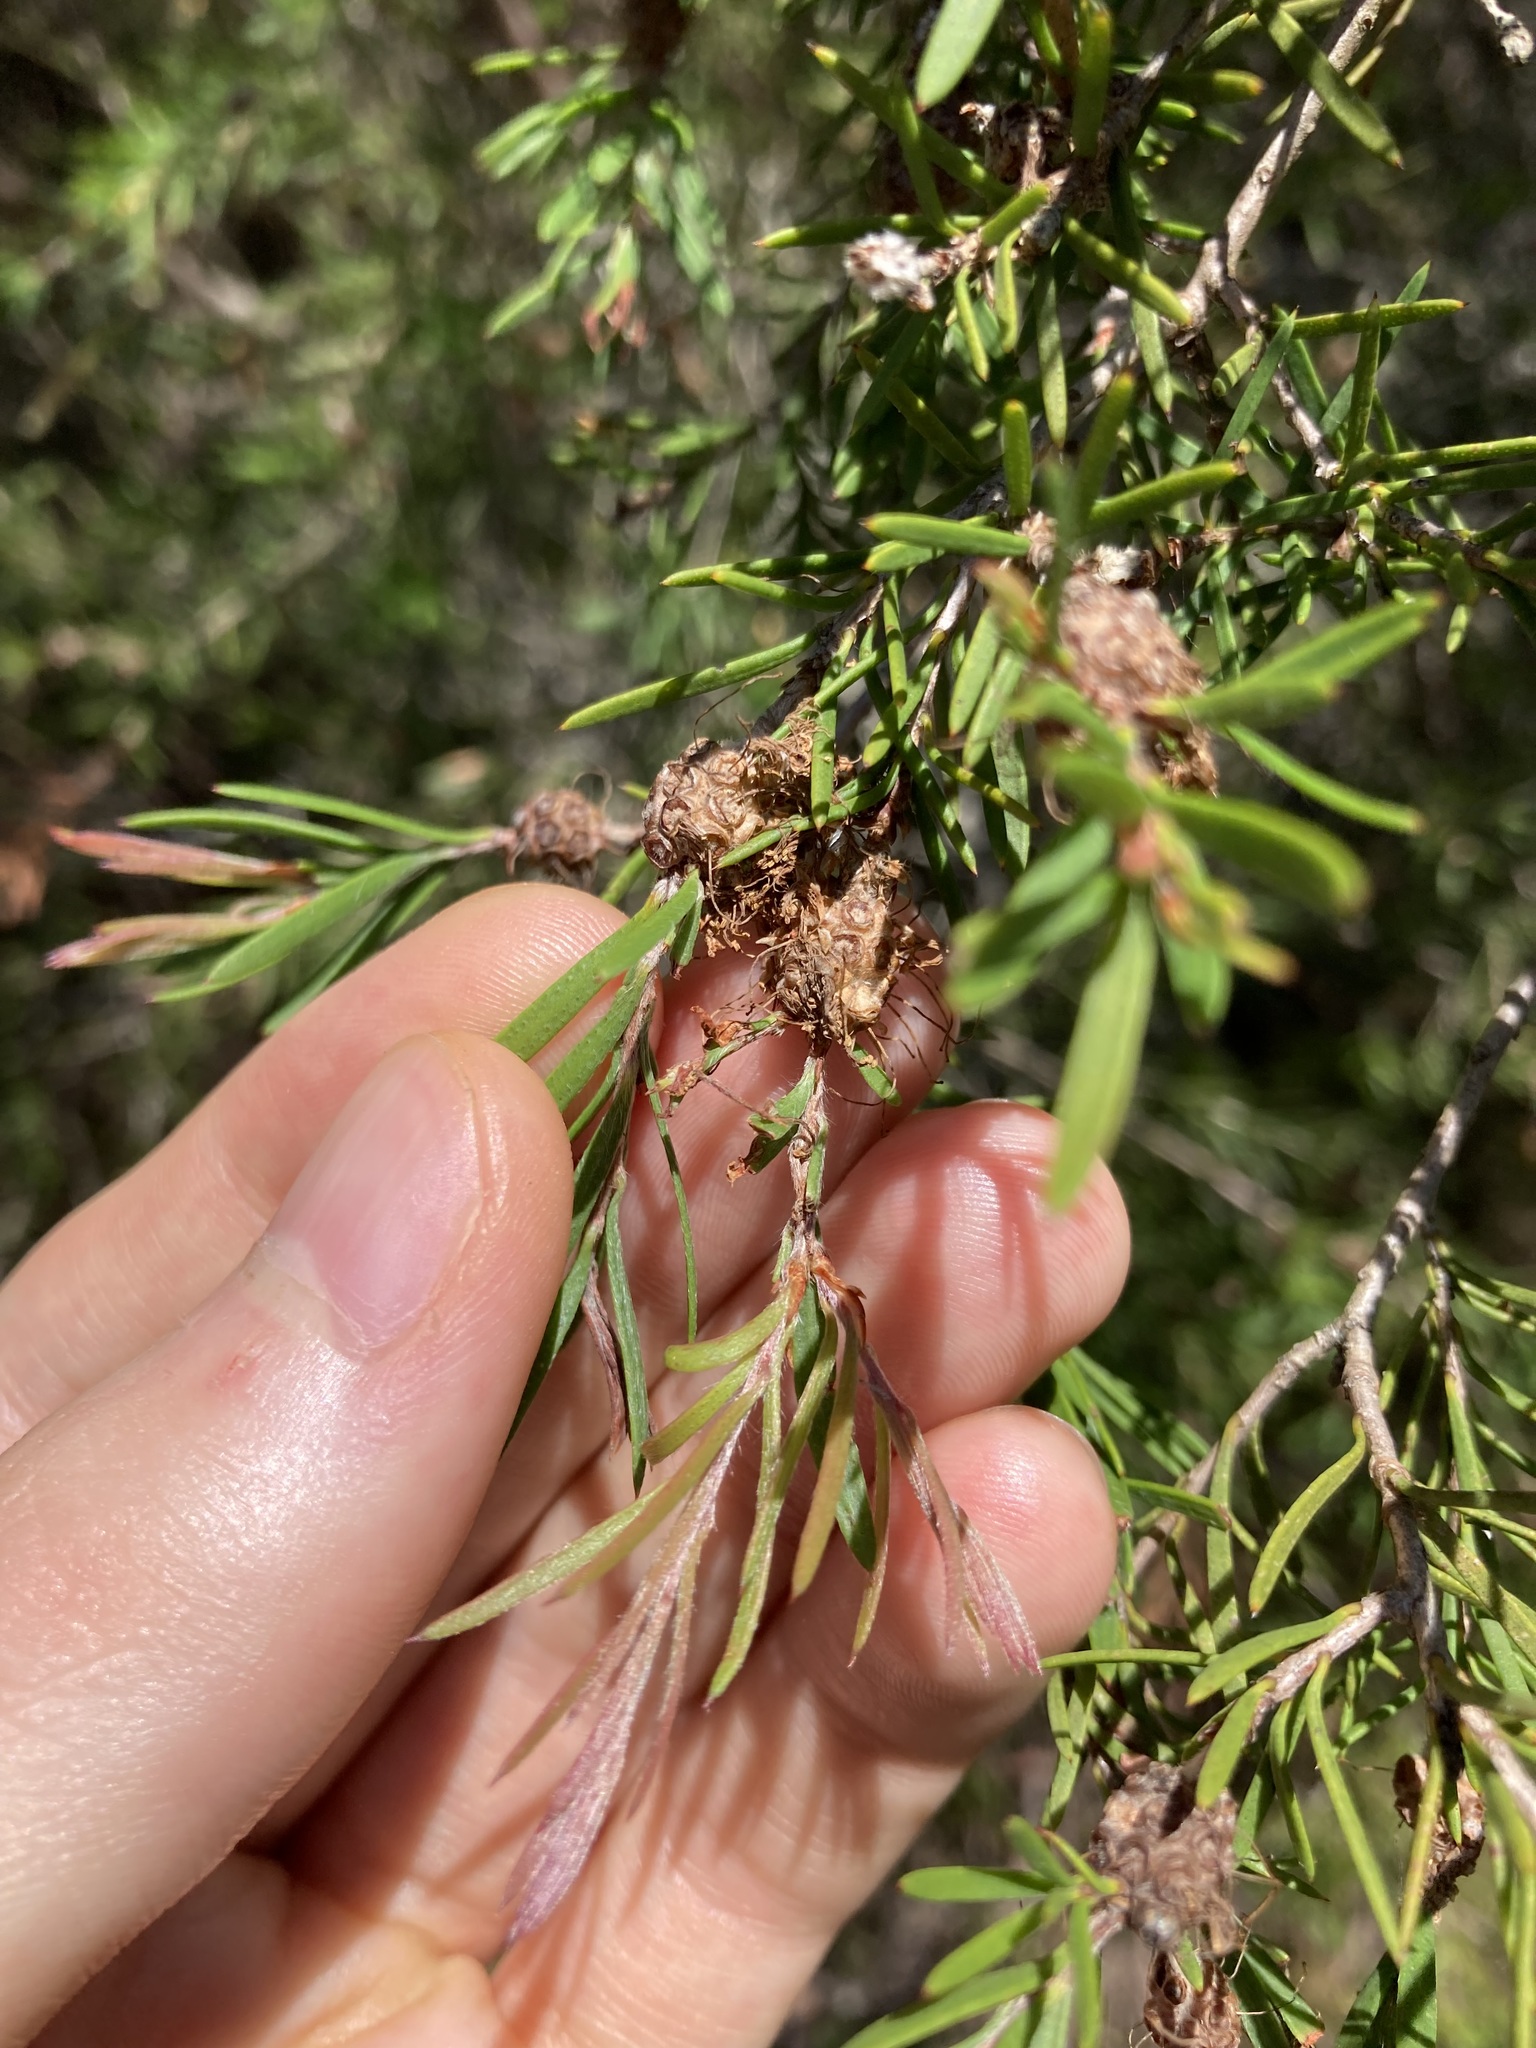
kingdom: Plantae
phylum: Tracheophyta
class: Magnoliopsida
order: Myrtales
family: Myrtaceae
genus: Melaleuca
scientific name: Melaleuca nodosa
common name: Prickly-leaf paperbark
